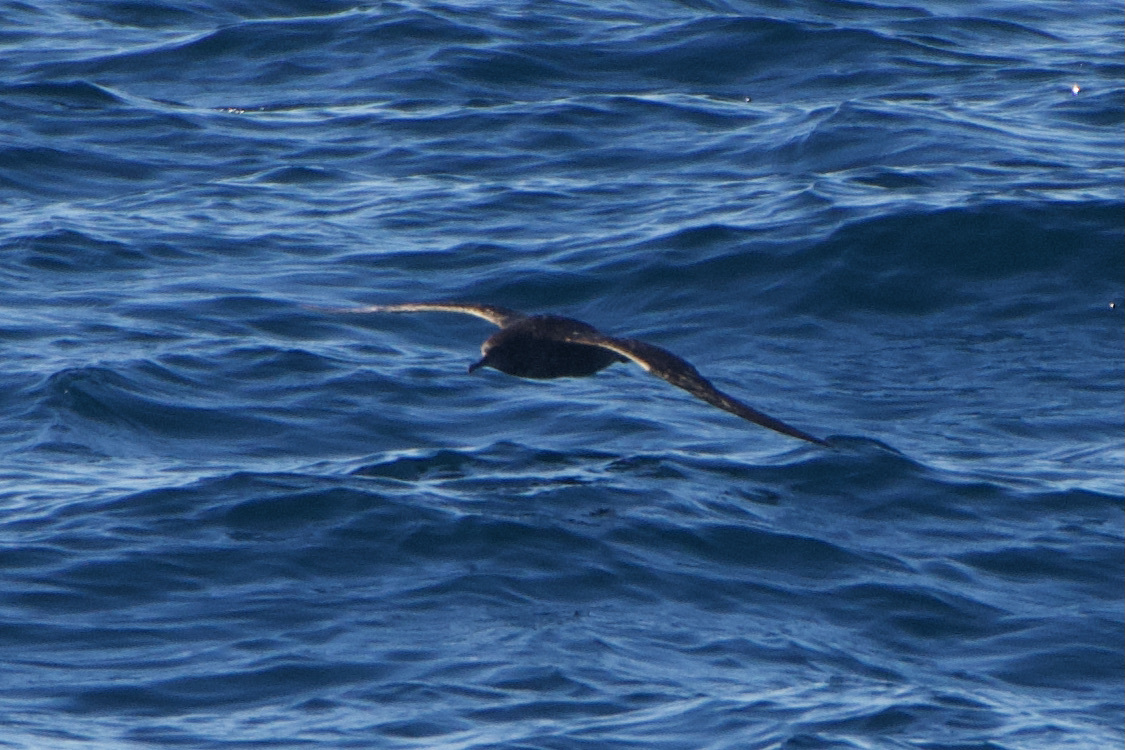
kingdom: Animalia
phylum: Chordata
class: Aves
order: Procellariiformes
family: Procellariidae
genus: Puffinus
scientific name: Puffinus tenuirostris
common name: Short-tailed shearwater
